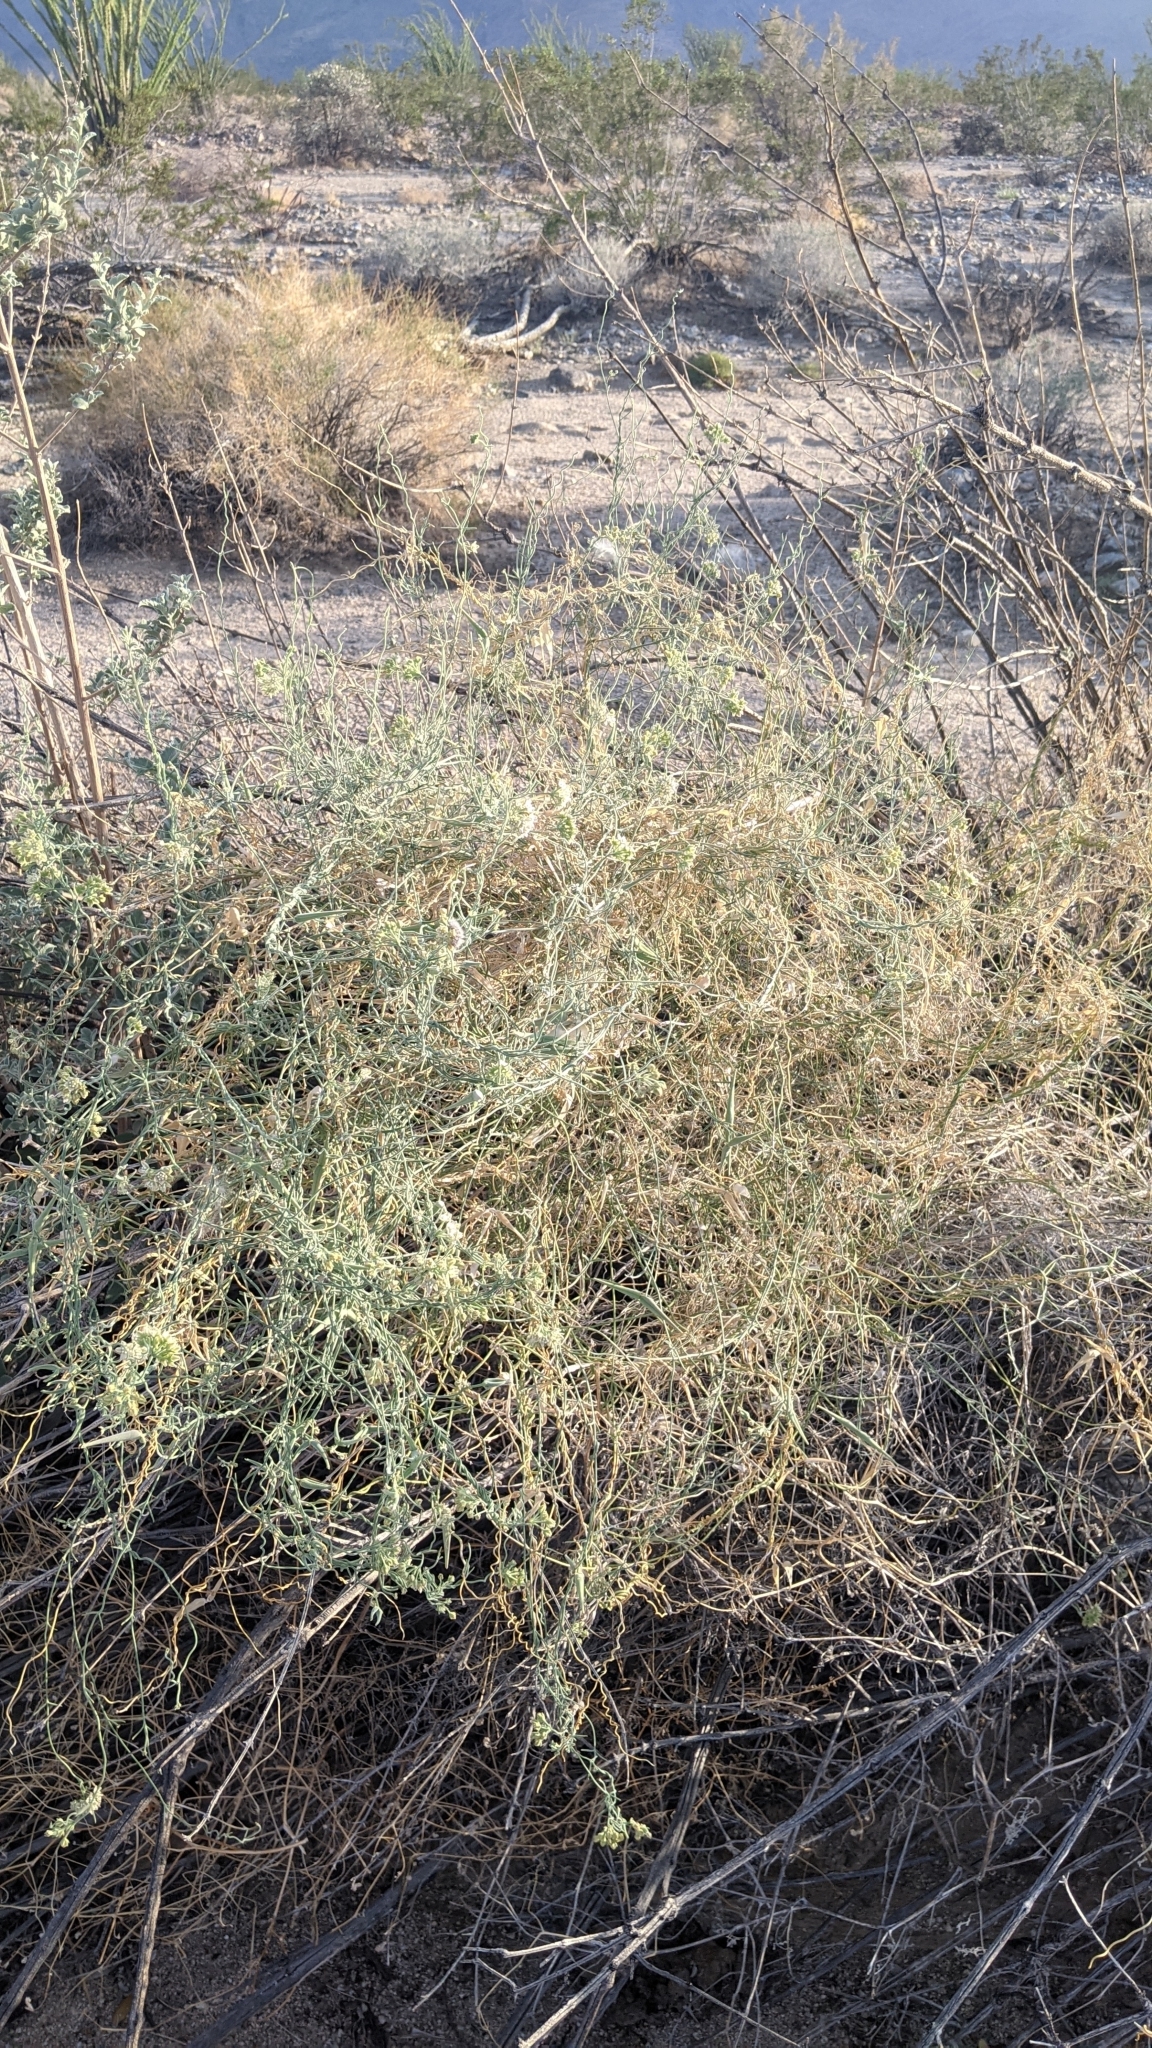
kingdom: Plantae
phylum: Tracheophyta
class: Magnoliopsida
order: Gentianales
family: Apocynaceae
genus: Funastrum
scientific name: Funastrum hirtellum
